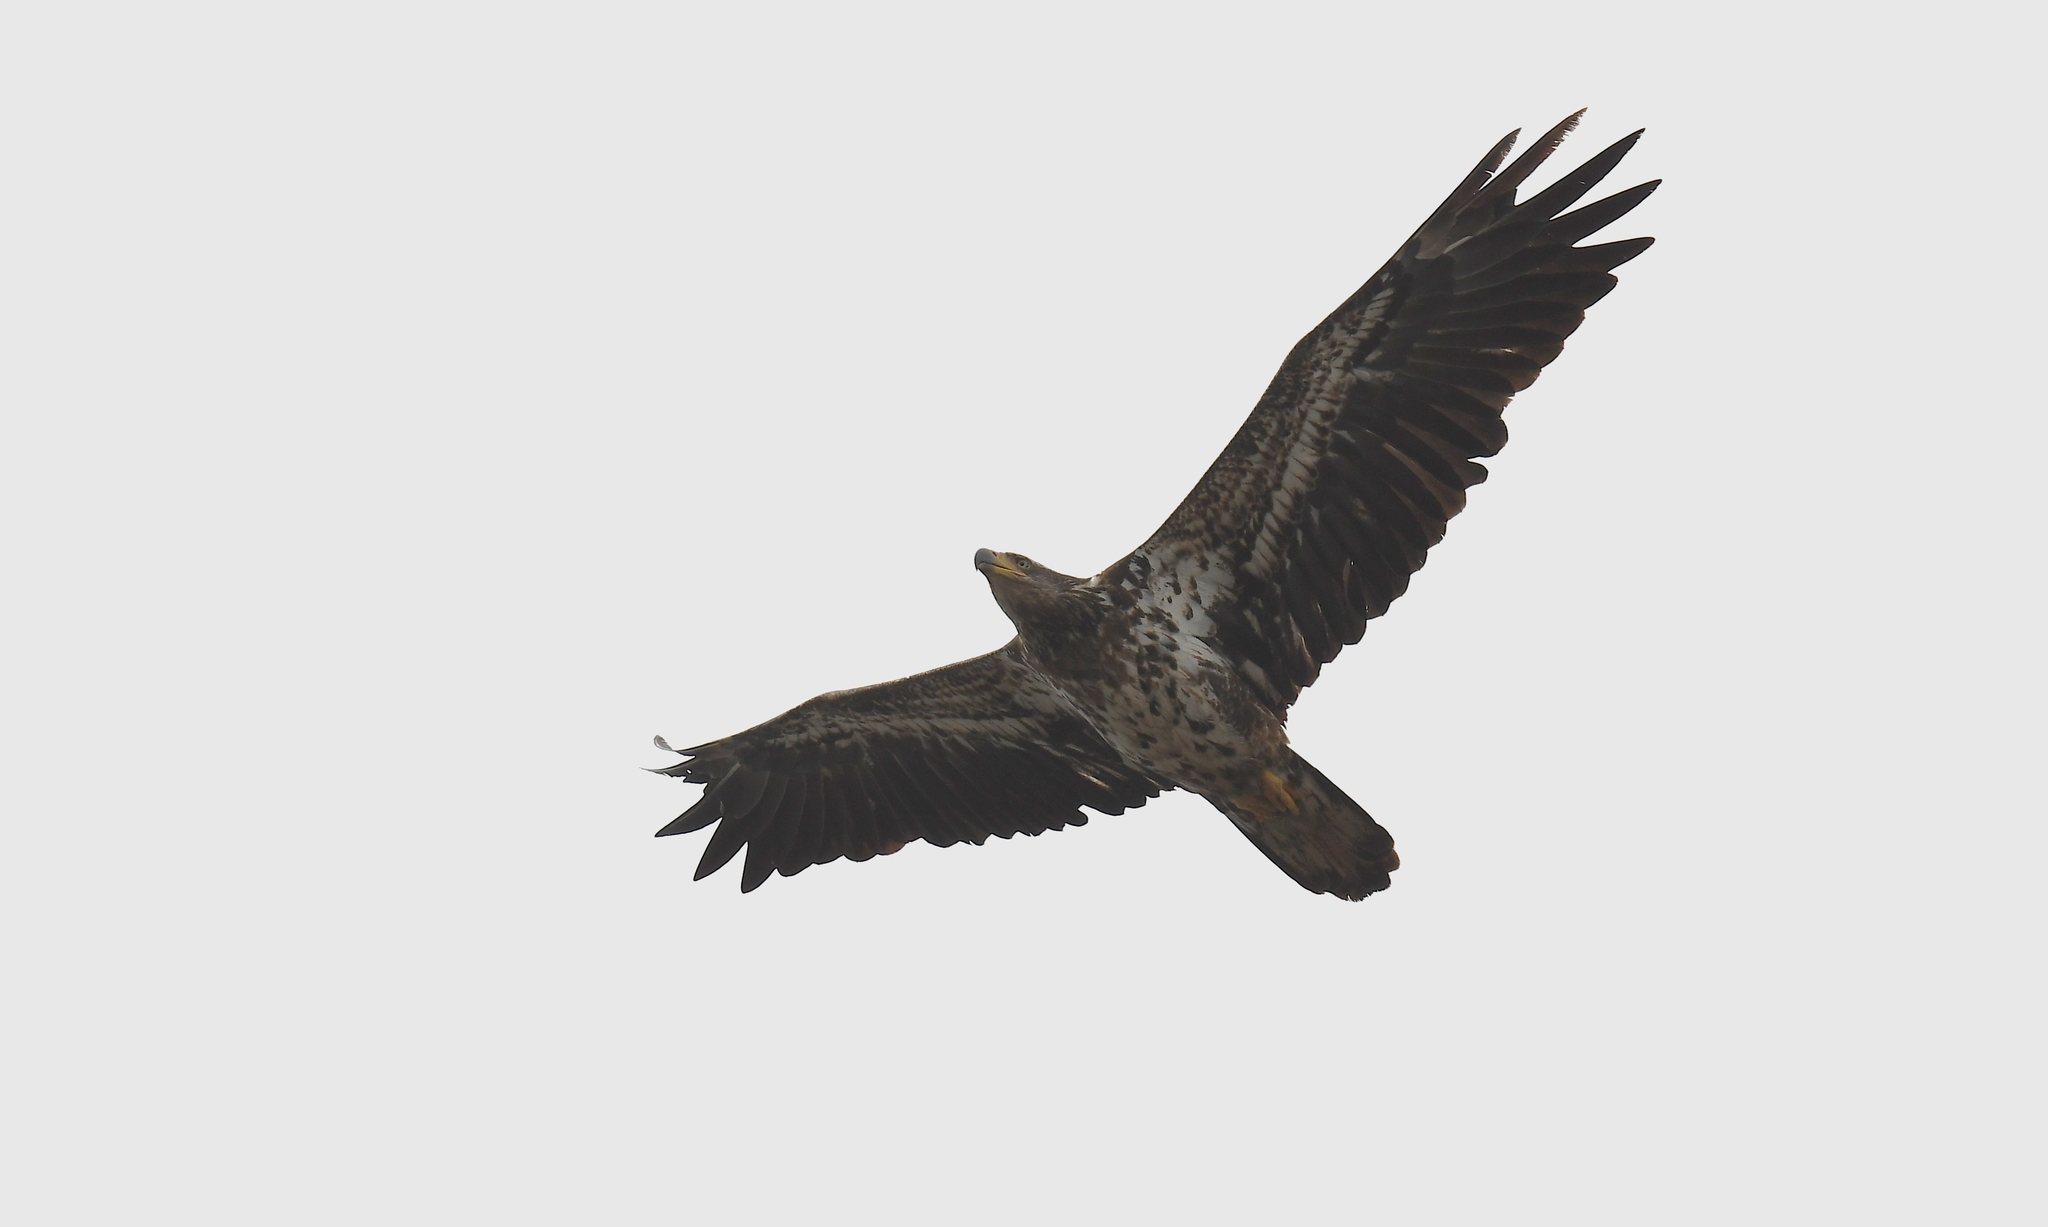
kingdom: Animalia
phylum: Chordata
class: Aves
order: Accipitriformes
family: Accipitridae
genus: Haliaeetus
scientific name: Haliaeetus leucocephalus
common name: Bald eagle
